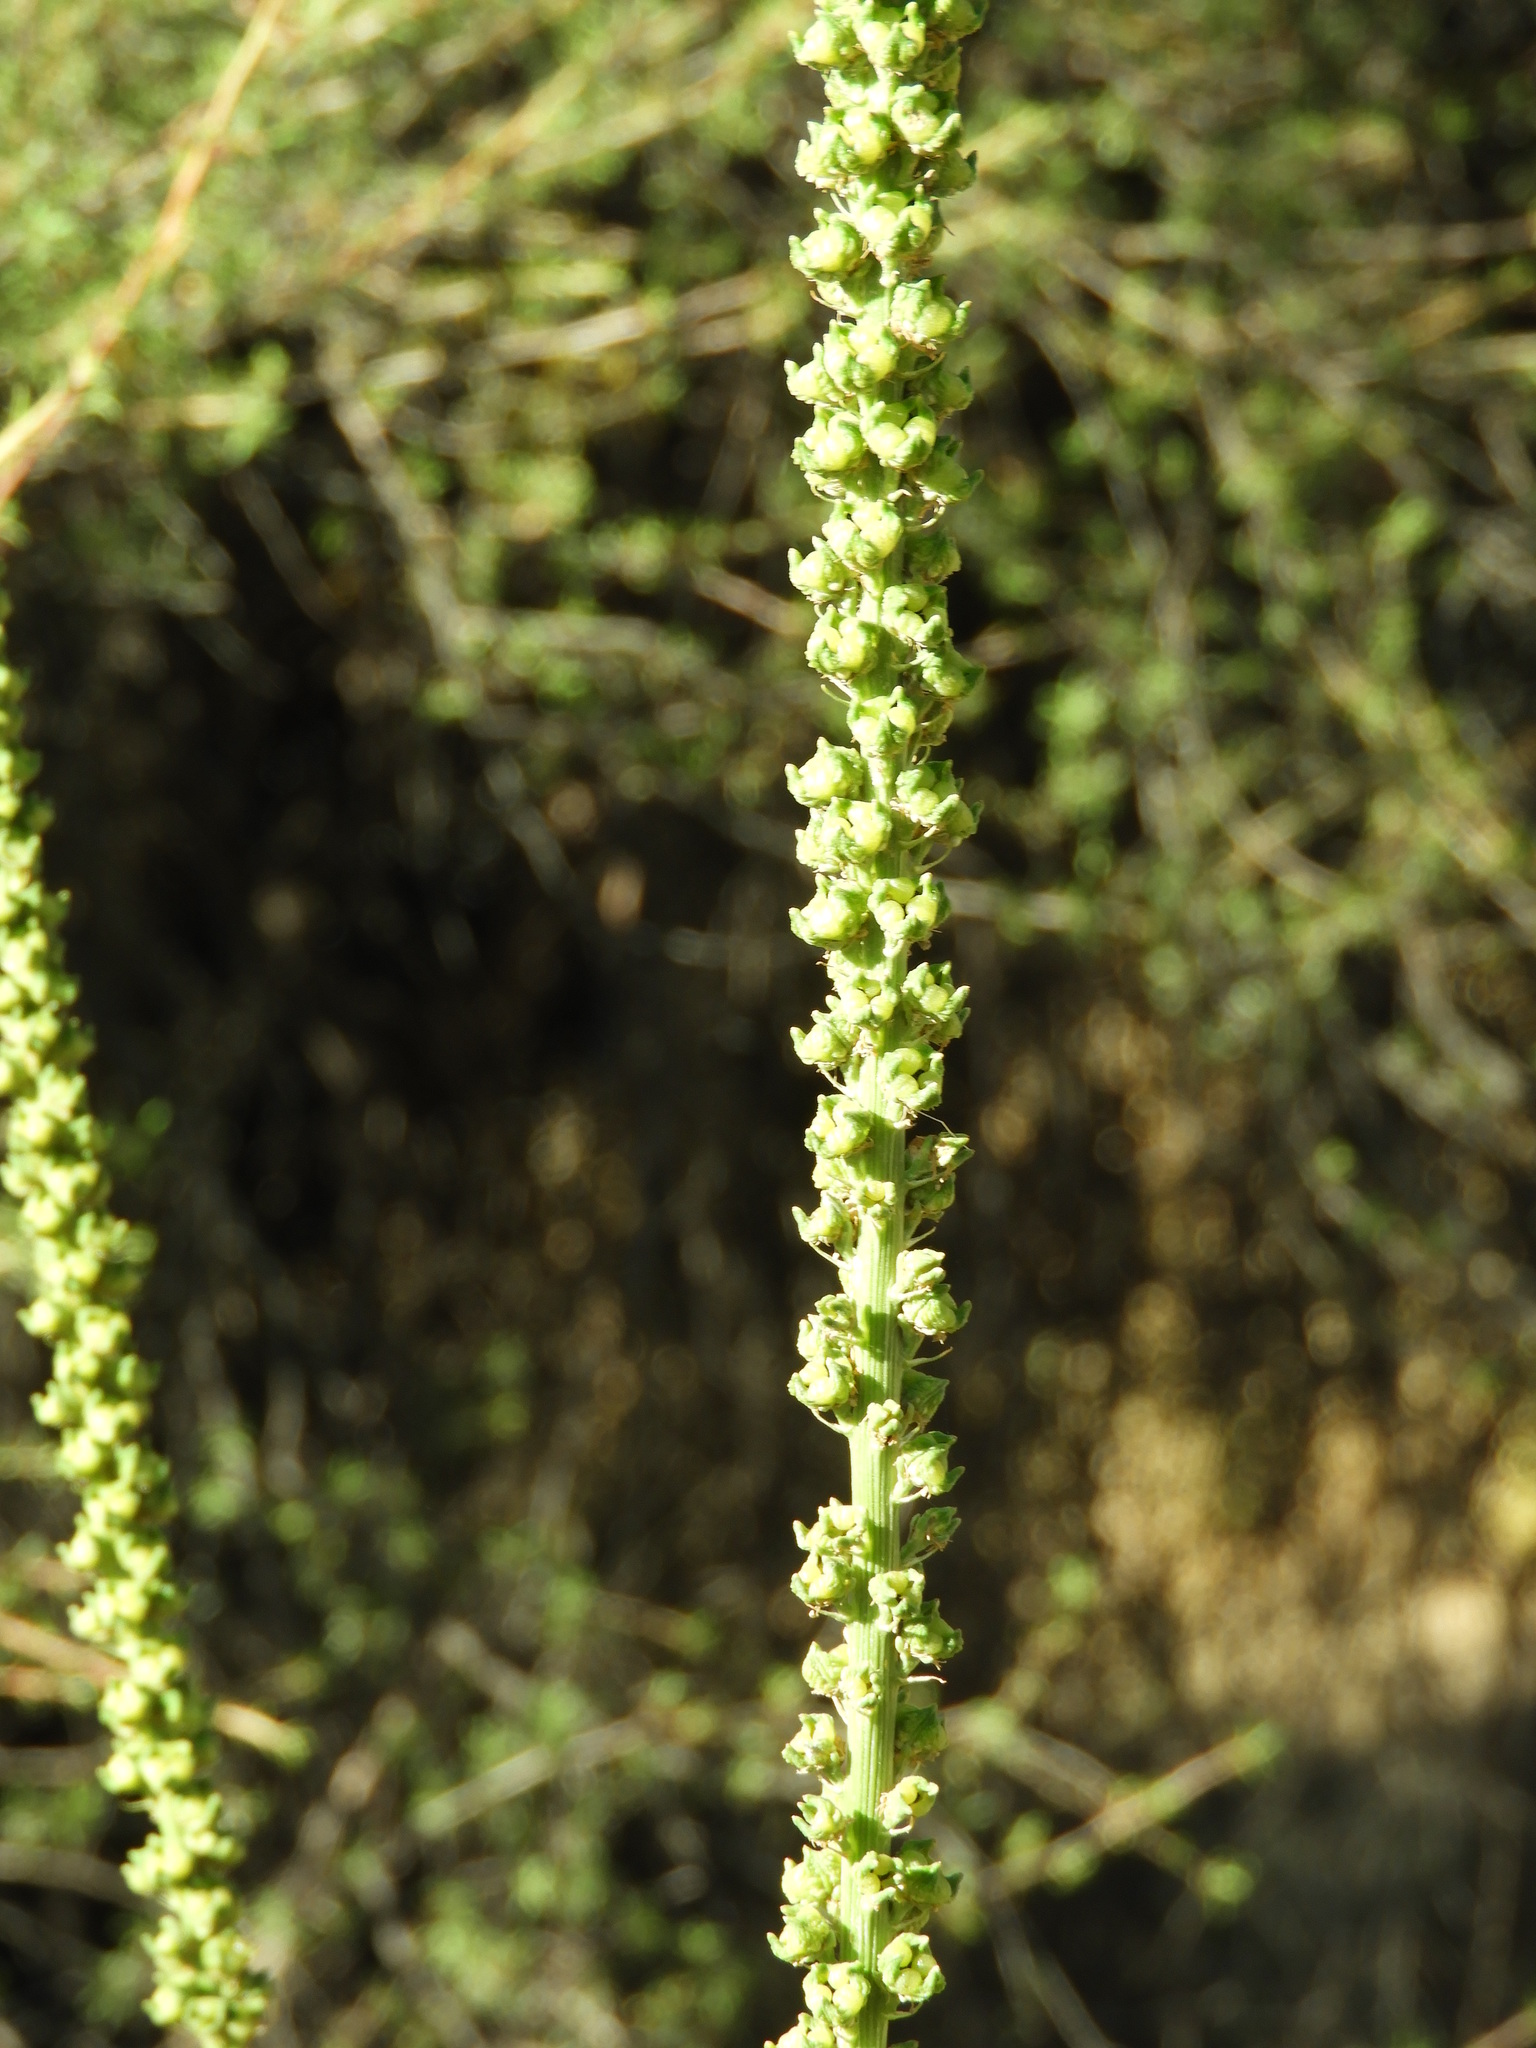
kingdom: Plantae
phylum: Tracheophyta
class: Magnoliopsida
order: Brassicales
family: Resedaceae
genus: Reseda
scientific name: Reseda luteola
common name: Weld
